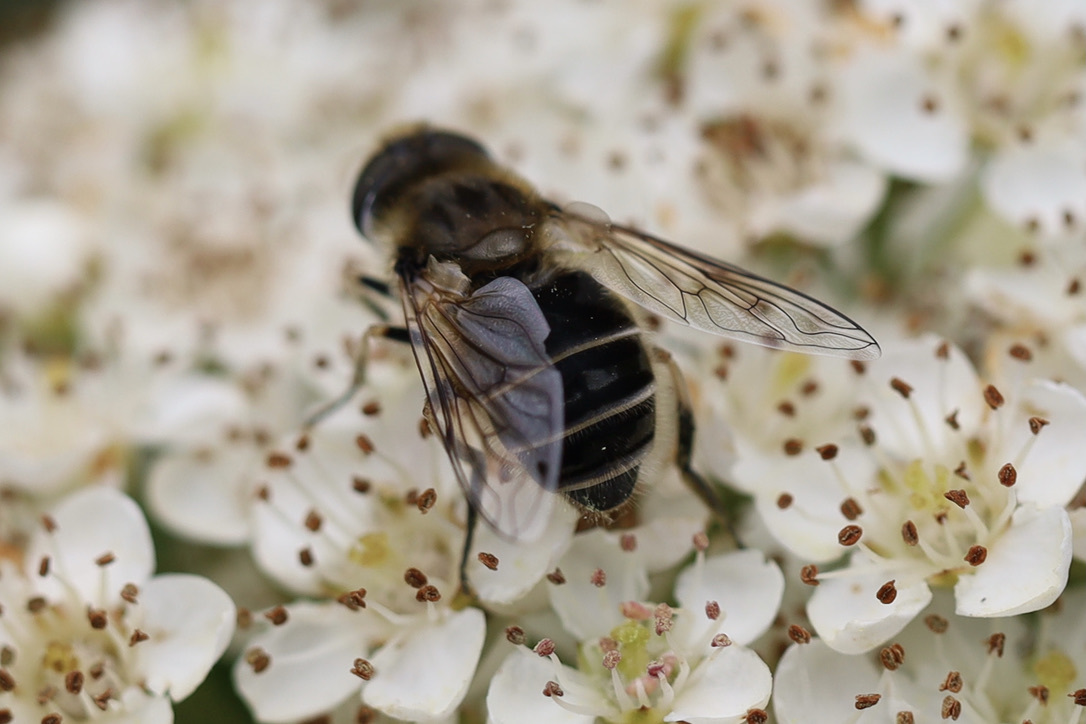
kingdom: Animalia
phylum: Arthropoda
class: Insecta
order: Diptera
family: Syrphidae
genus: Eristalis
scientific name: Eristalis arbustorum
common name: Hover fly
